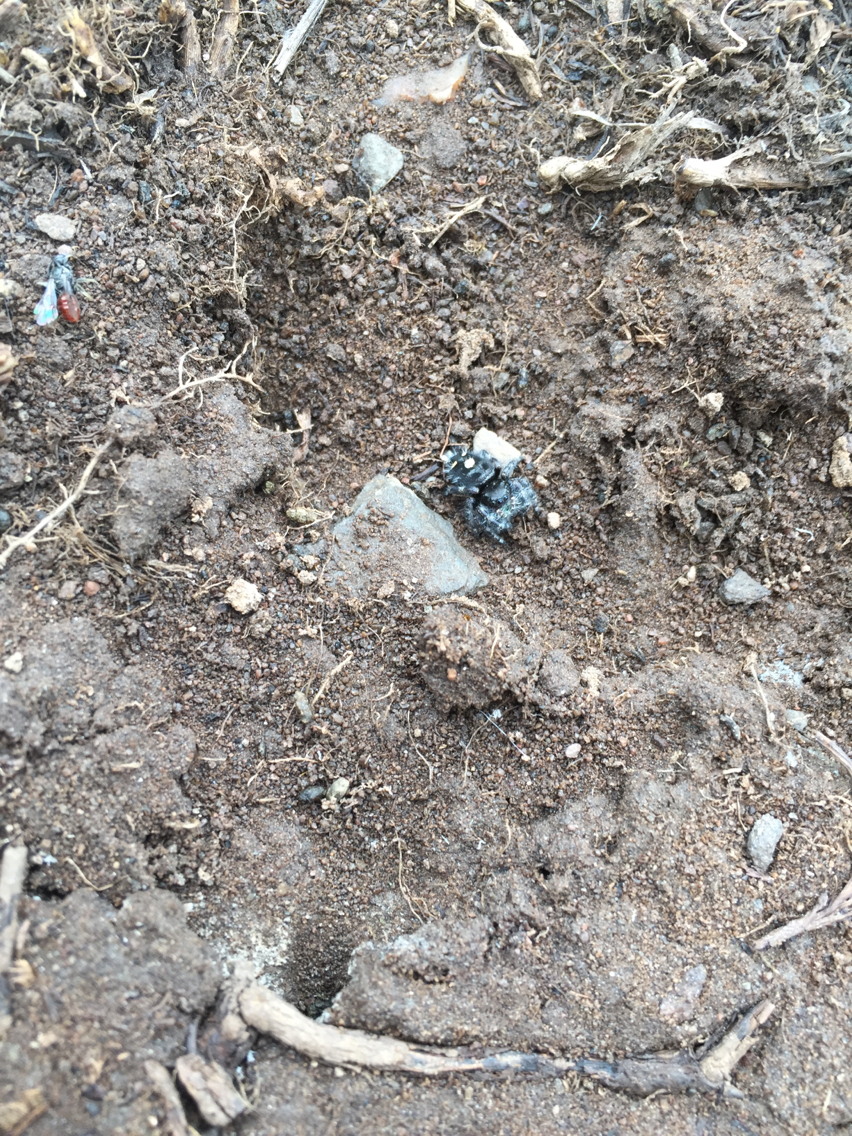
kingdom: Animalia
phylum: Arthropoda
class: Arachnida
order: Araneae
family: Salticidae
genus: Phidippus
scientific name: Phidippus audax
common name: Bold jumper
